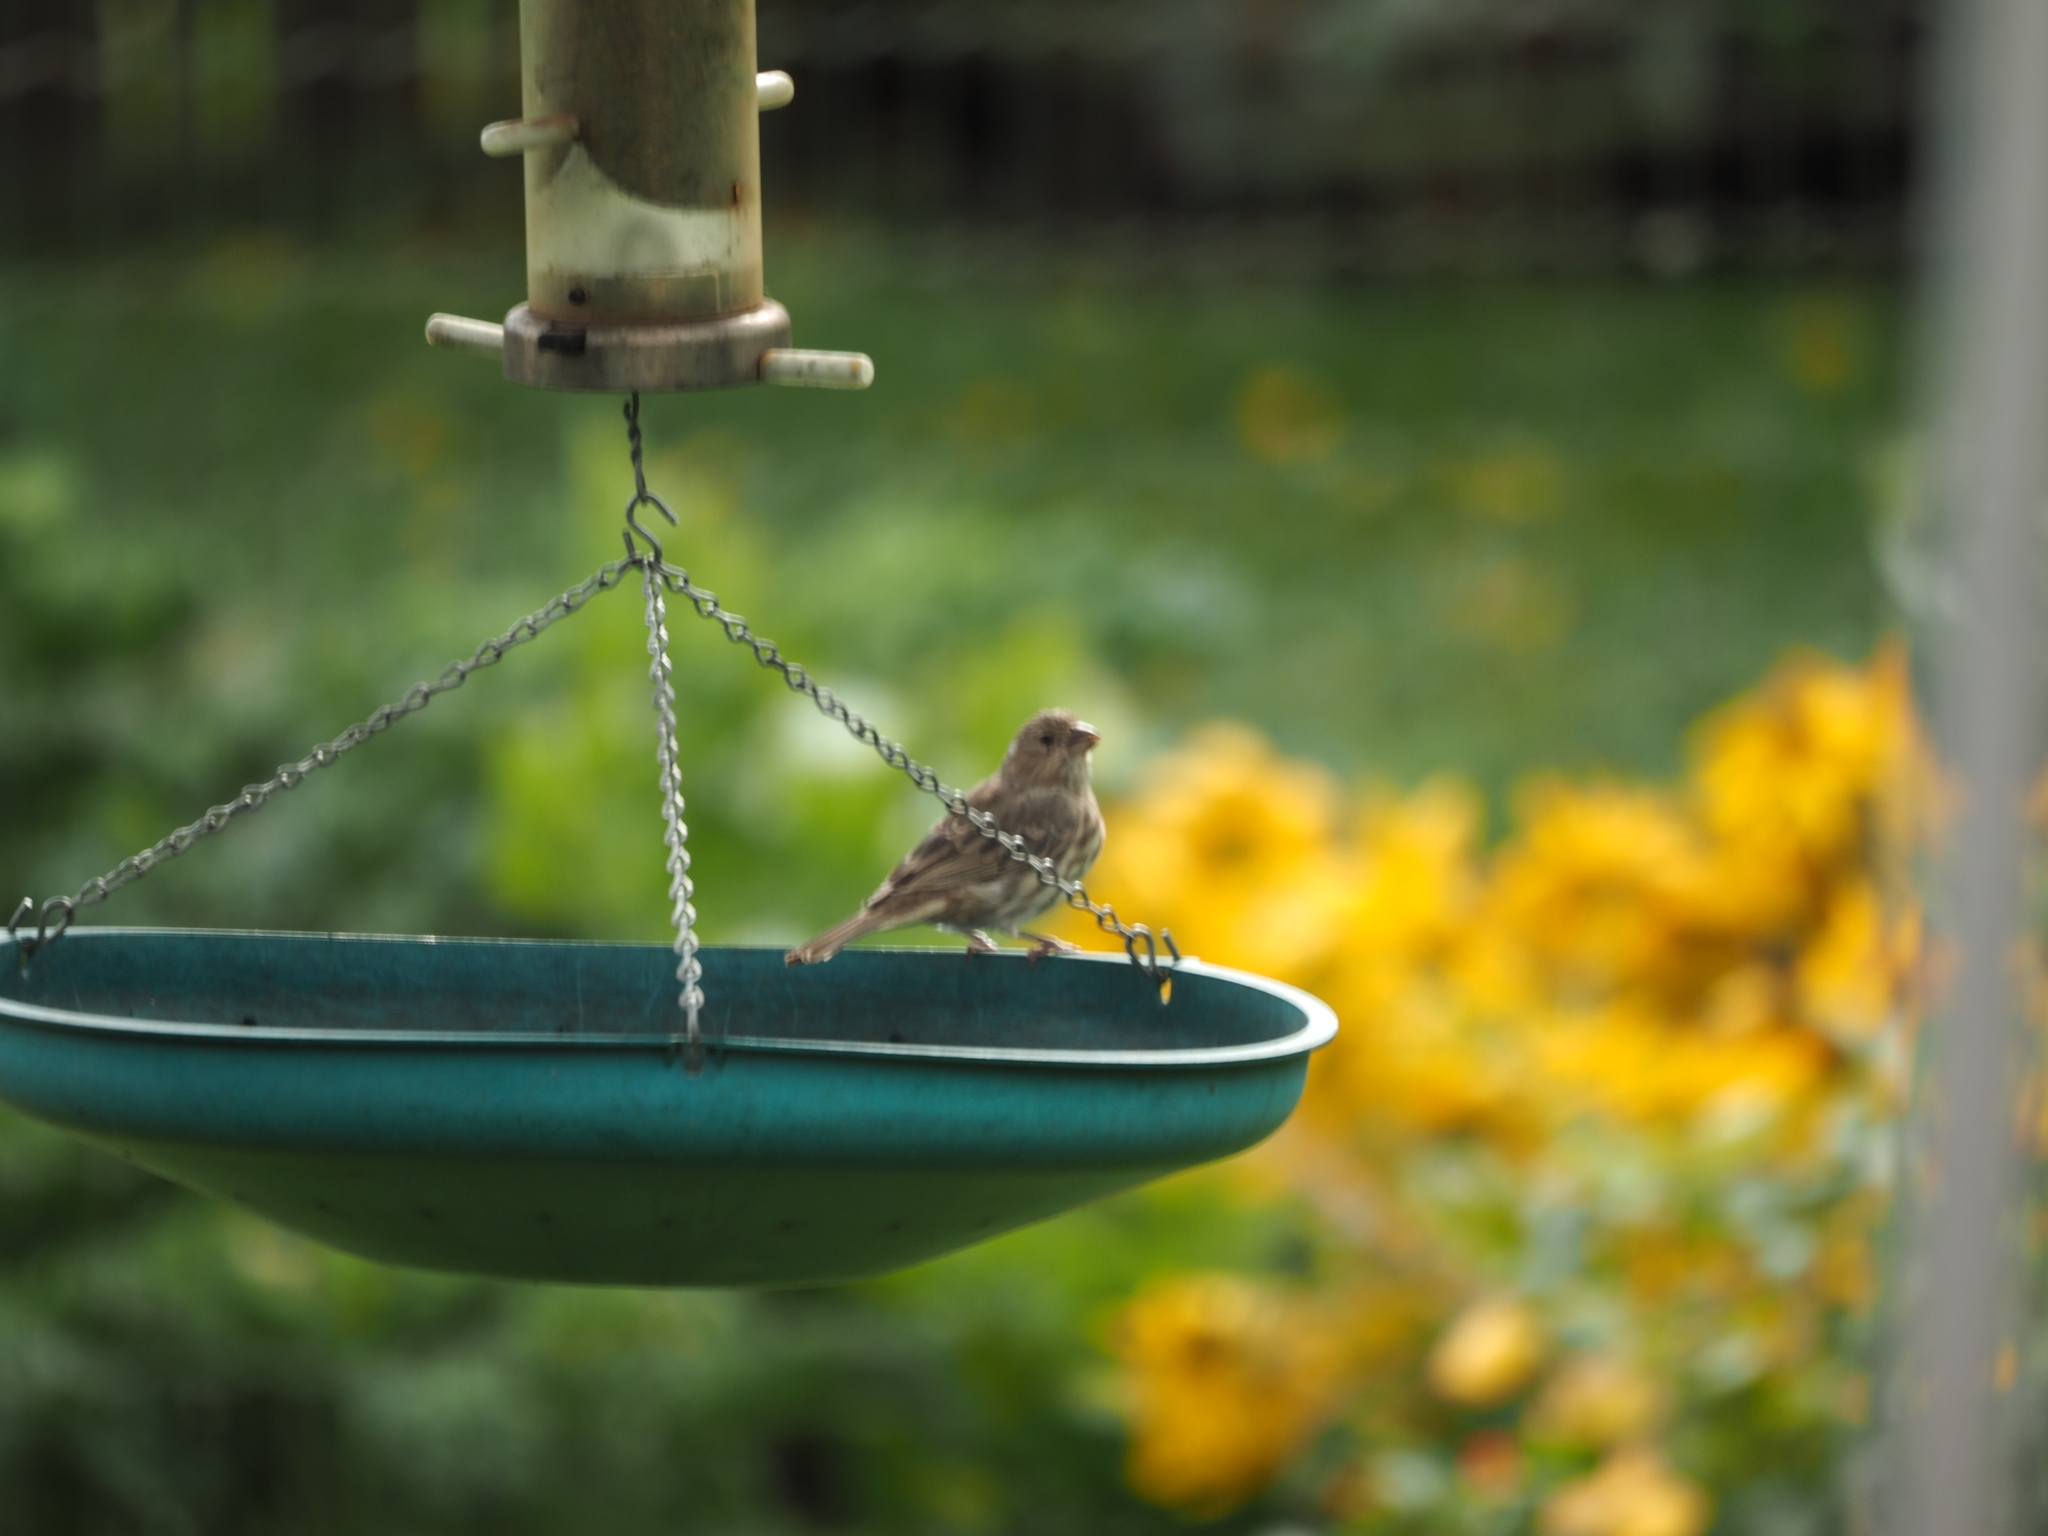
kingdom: Animalia
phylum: Chordata
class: Aves
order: Passeriformes
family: Fringillidae
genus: Haemorhous
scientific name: Haemorhous mexicanus
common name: House finch
